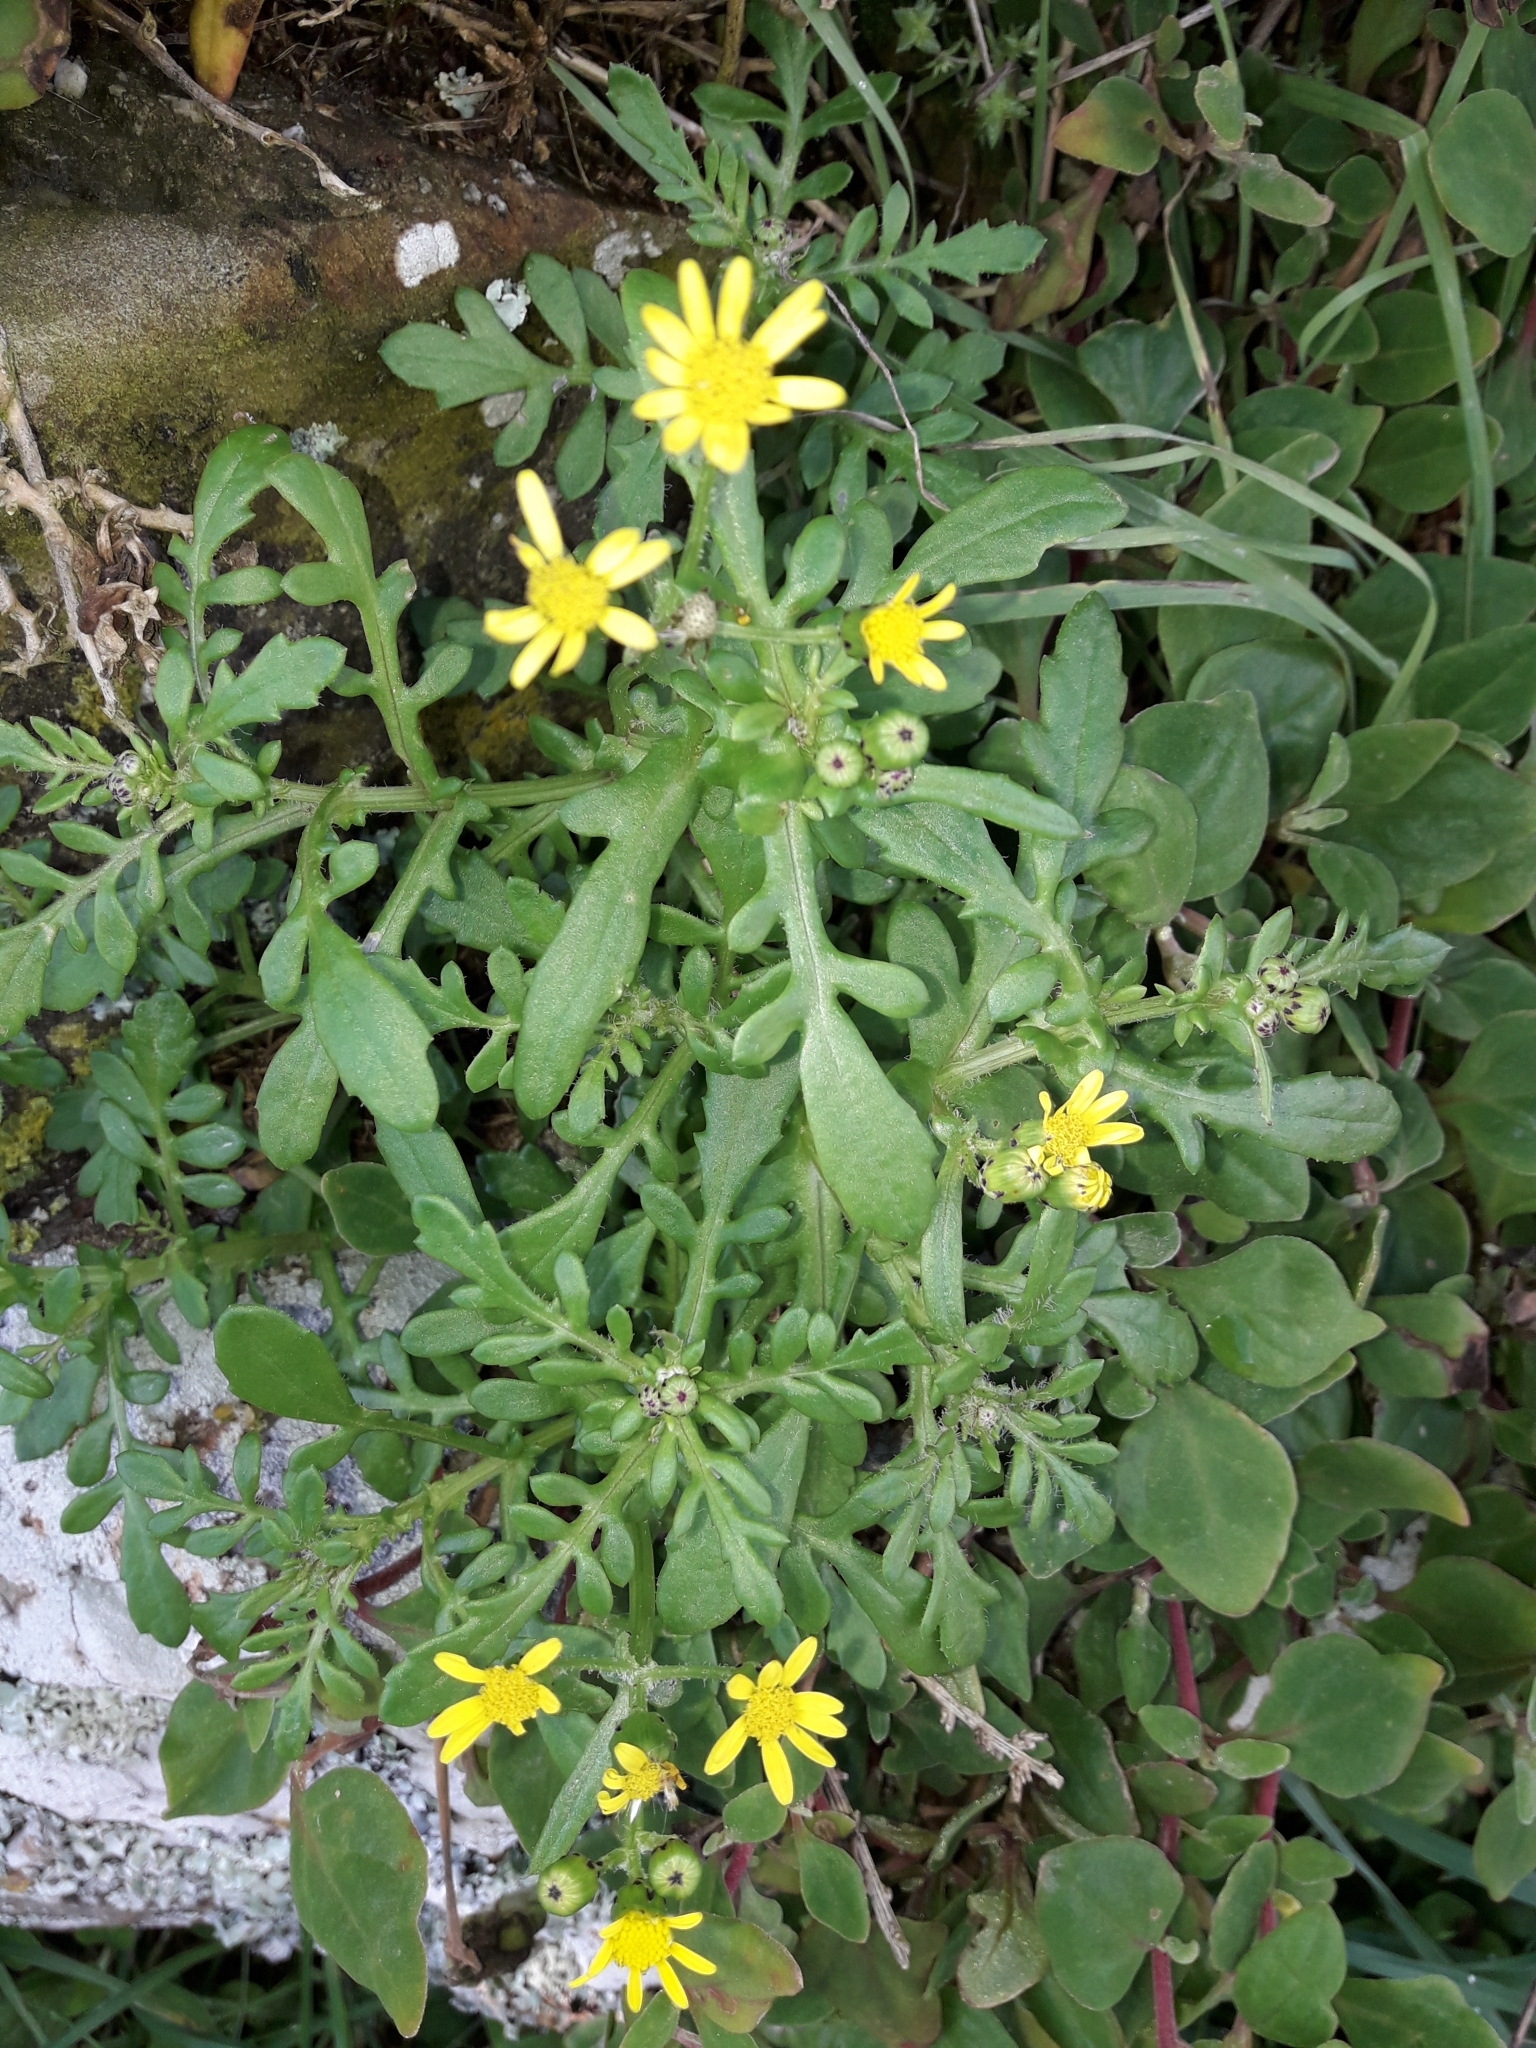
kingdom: Plantae
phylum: Tracheophyta
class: Magnoliopsida
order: Asterales
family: Asteraceae
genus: Senecio
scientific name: Senecio lautus
